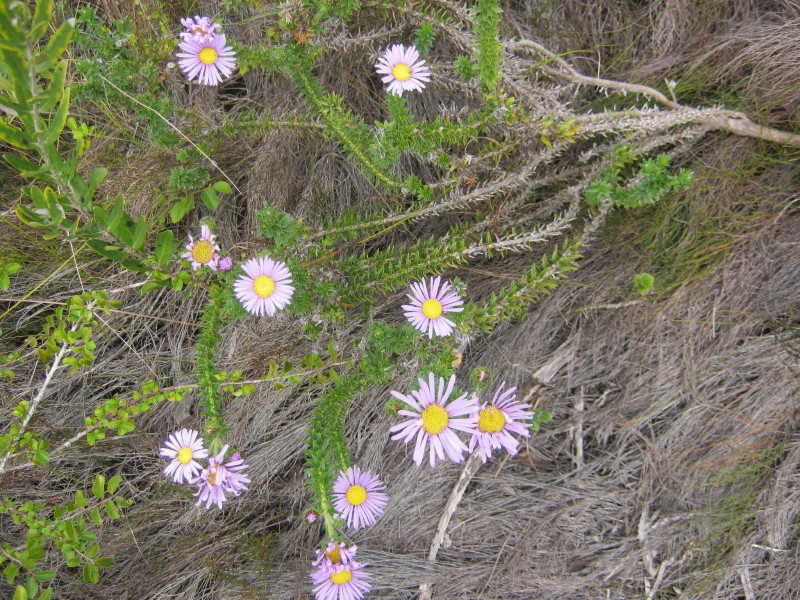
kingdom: Plantae
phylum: Tracheophyta
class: Magnoliopsida
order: Asterales
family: Asteraceae
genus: Felicia
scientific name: Felicia echinata
